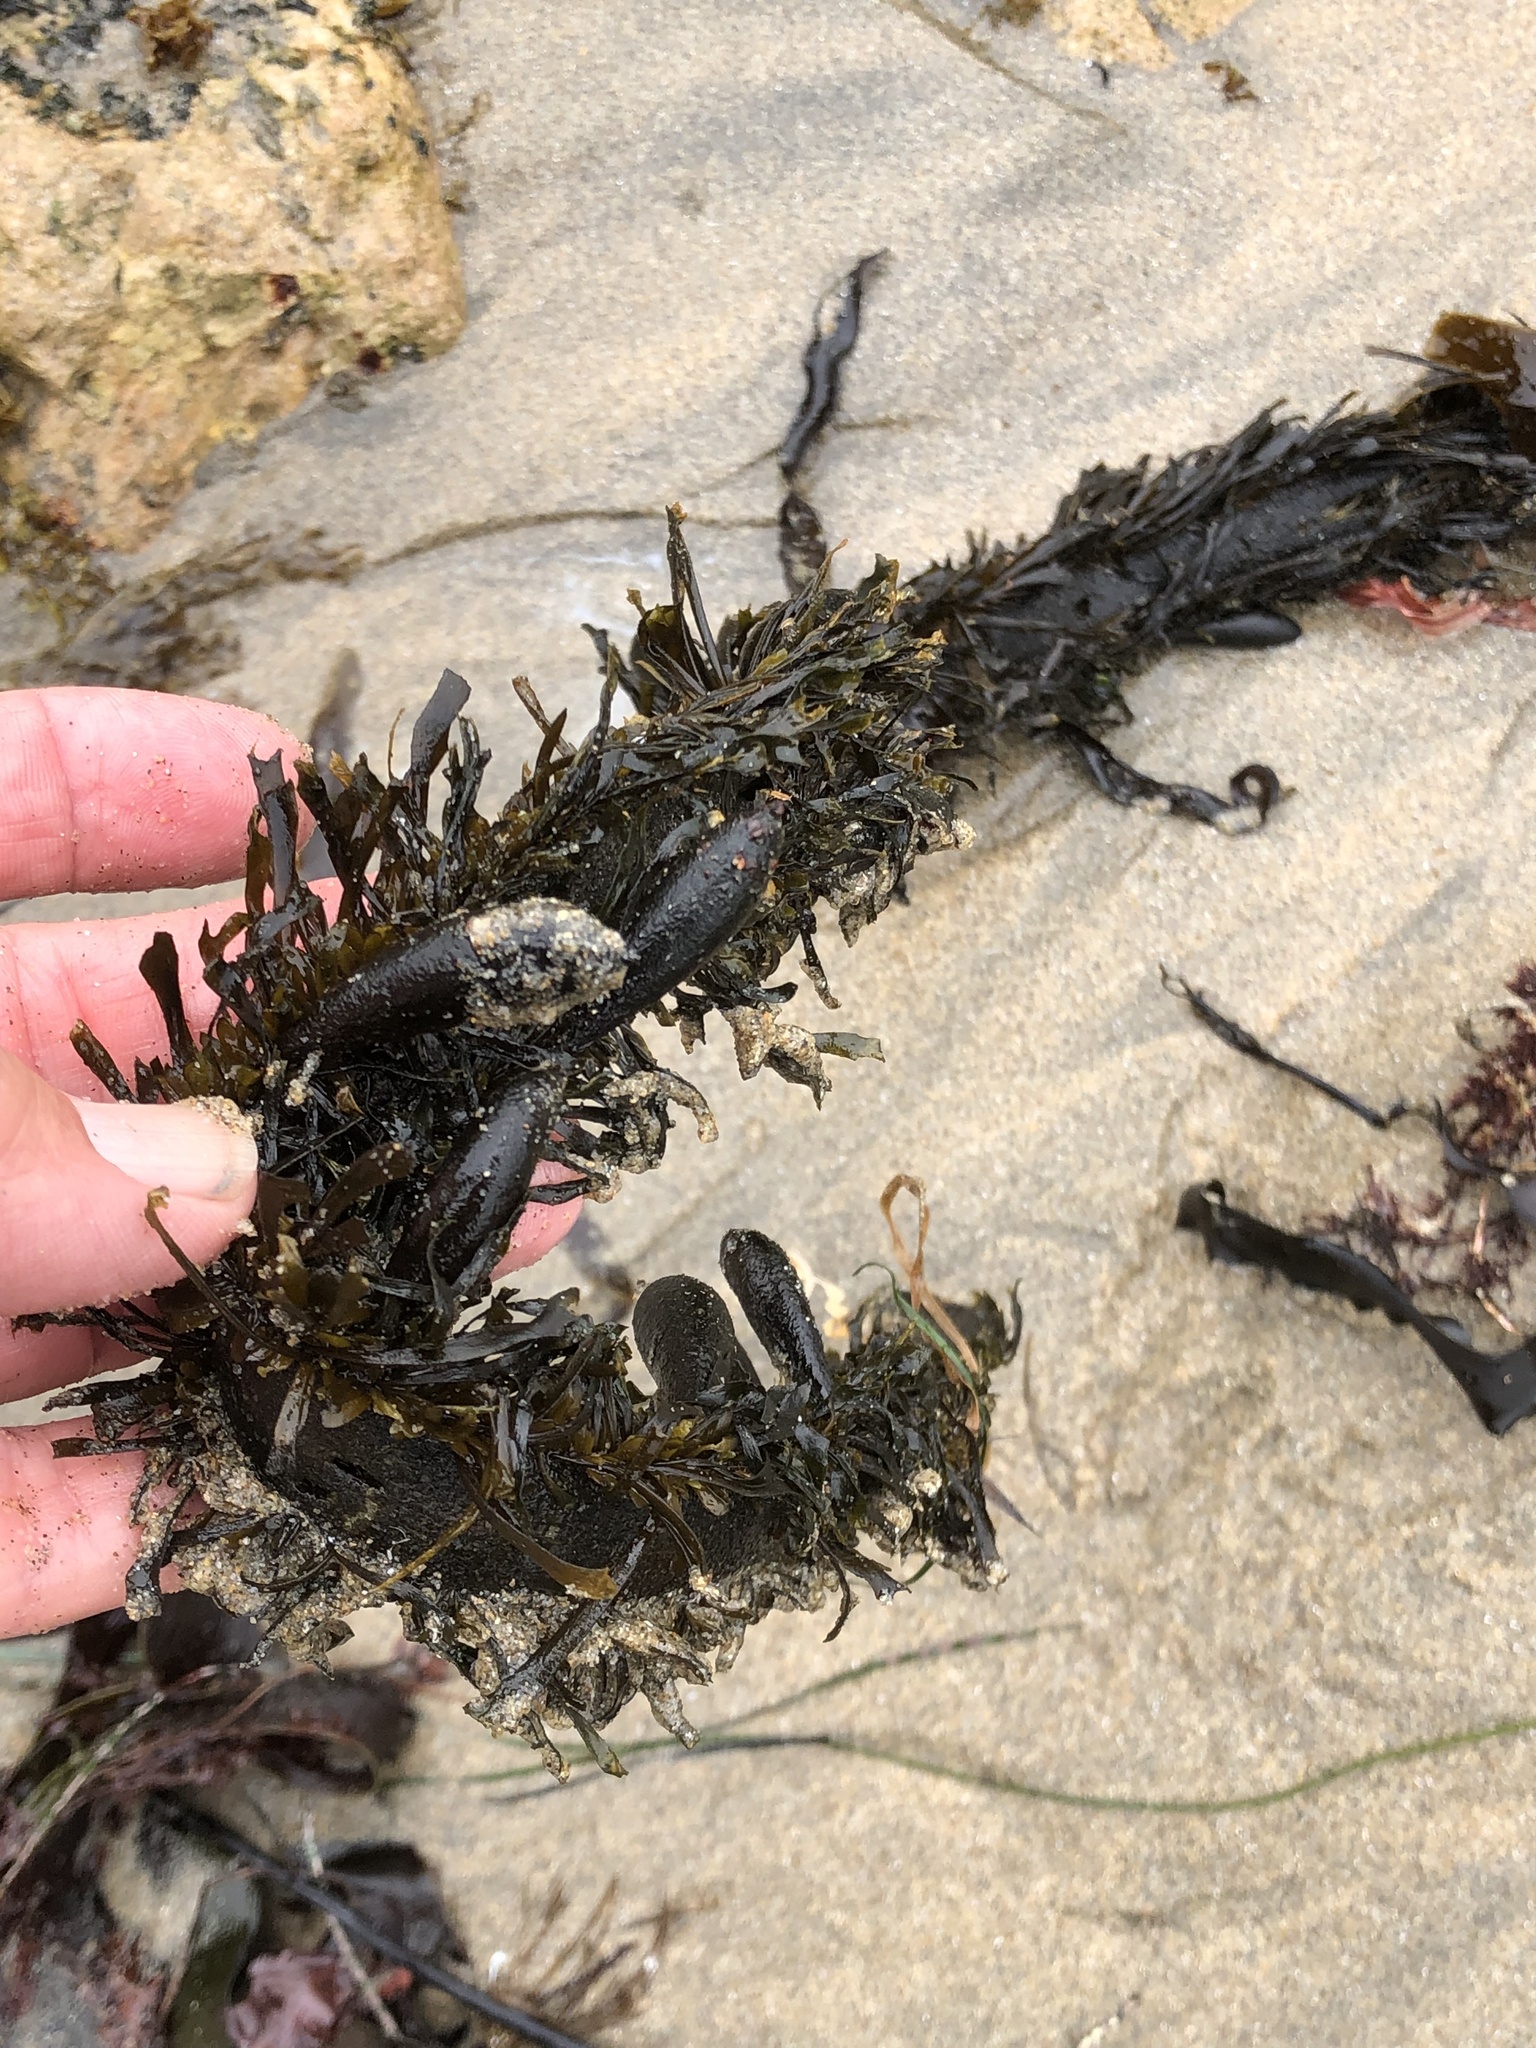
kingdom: Chromista
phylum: Ochrophyta
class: Phaeophyceae
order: Laminariales
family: Lessoniaceae
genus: Egregia
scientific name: Egregia menziesii
